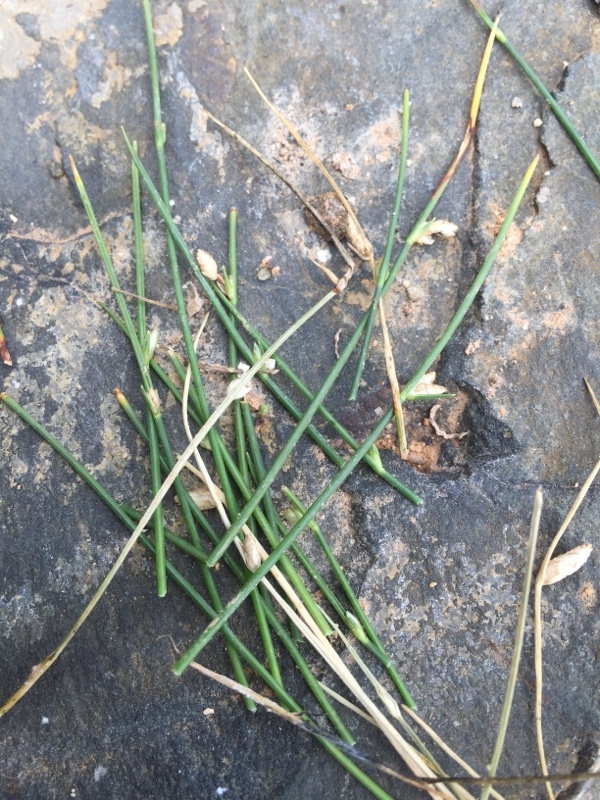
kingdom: Plantae
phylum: Tracheophyta
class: Liliopsida
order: Poales
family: Cyperaceae
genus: Cyperus
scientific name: Cyperus laevigatus
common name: Smooth flat sedge
